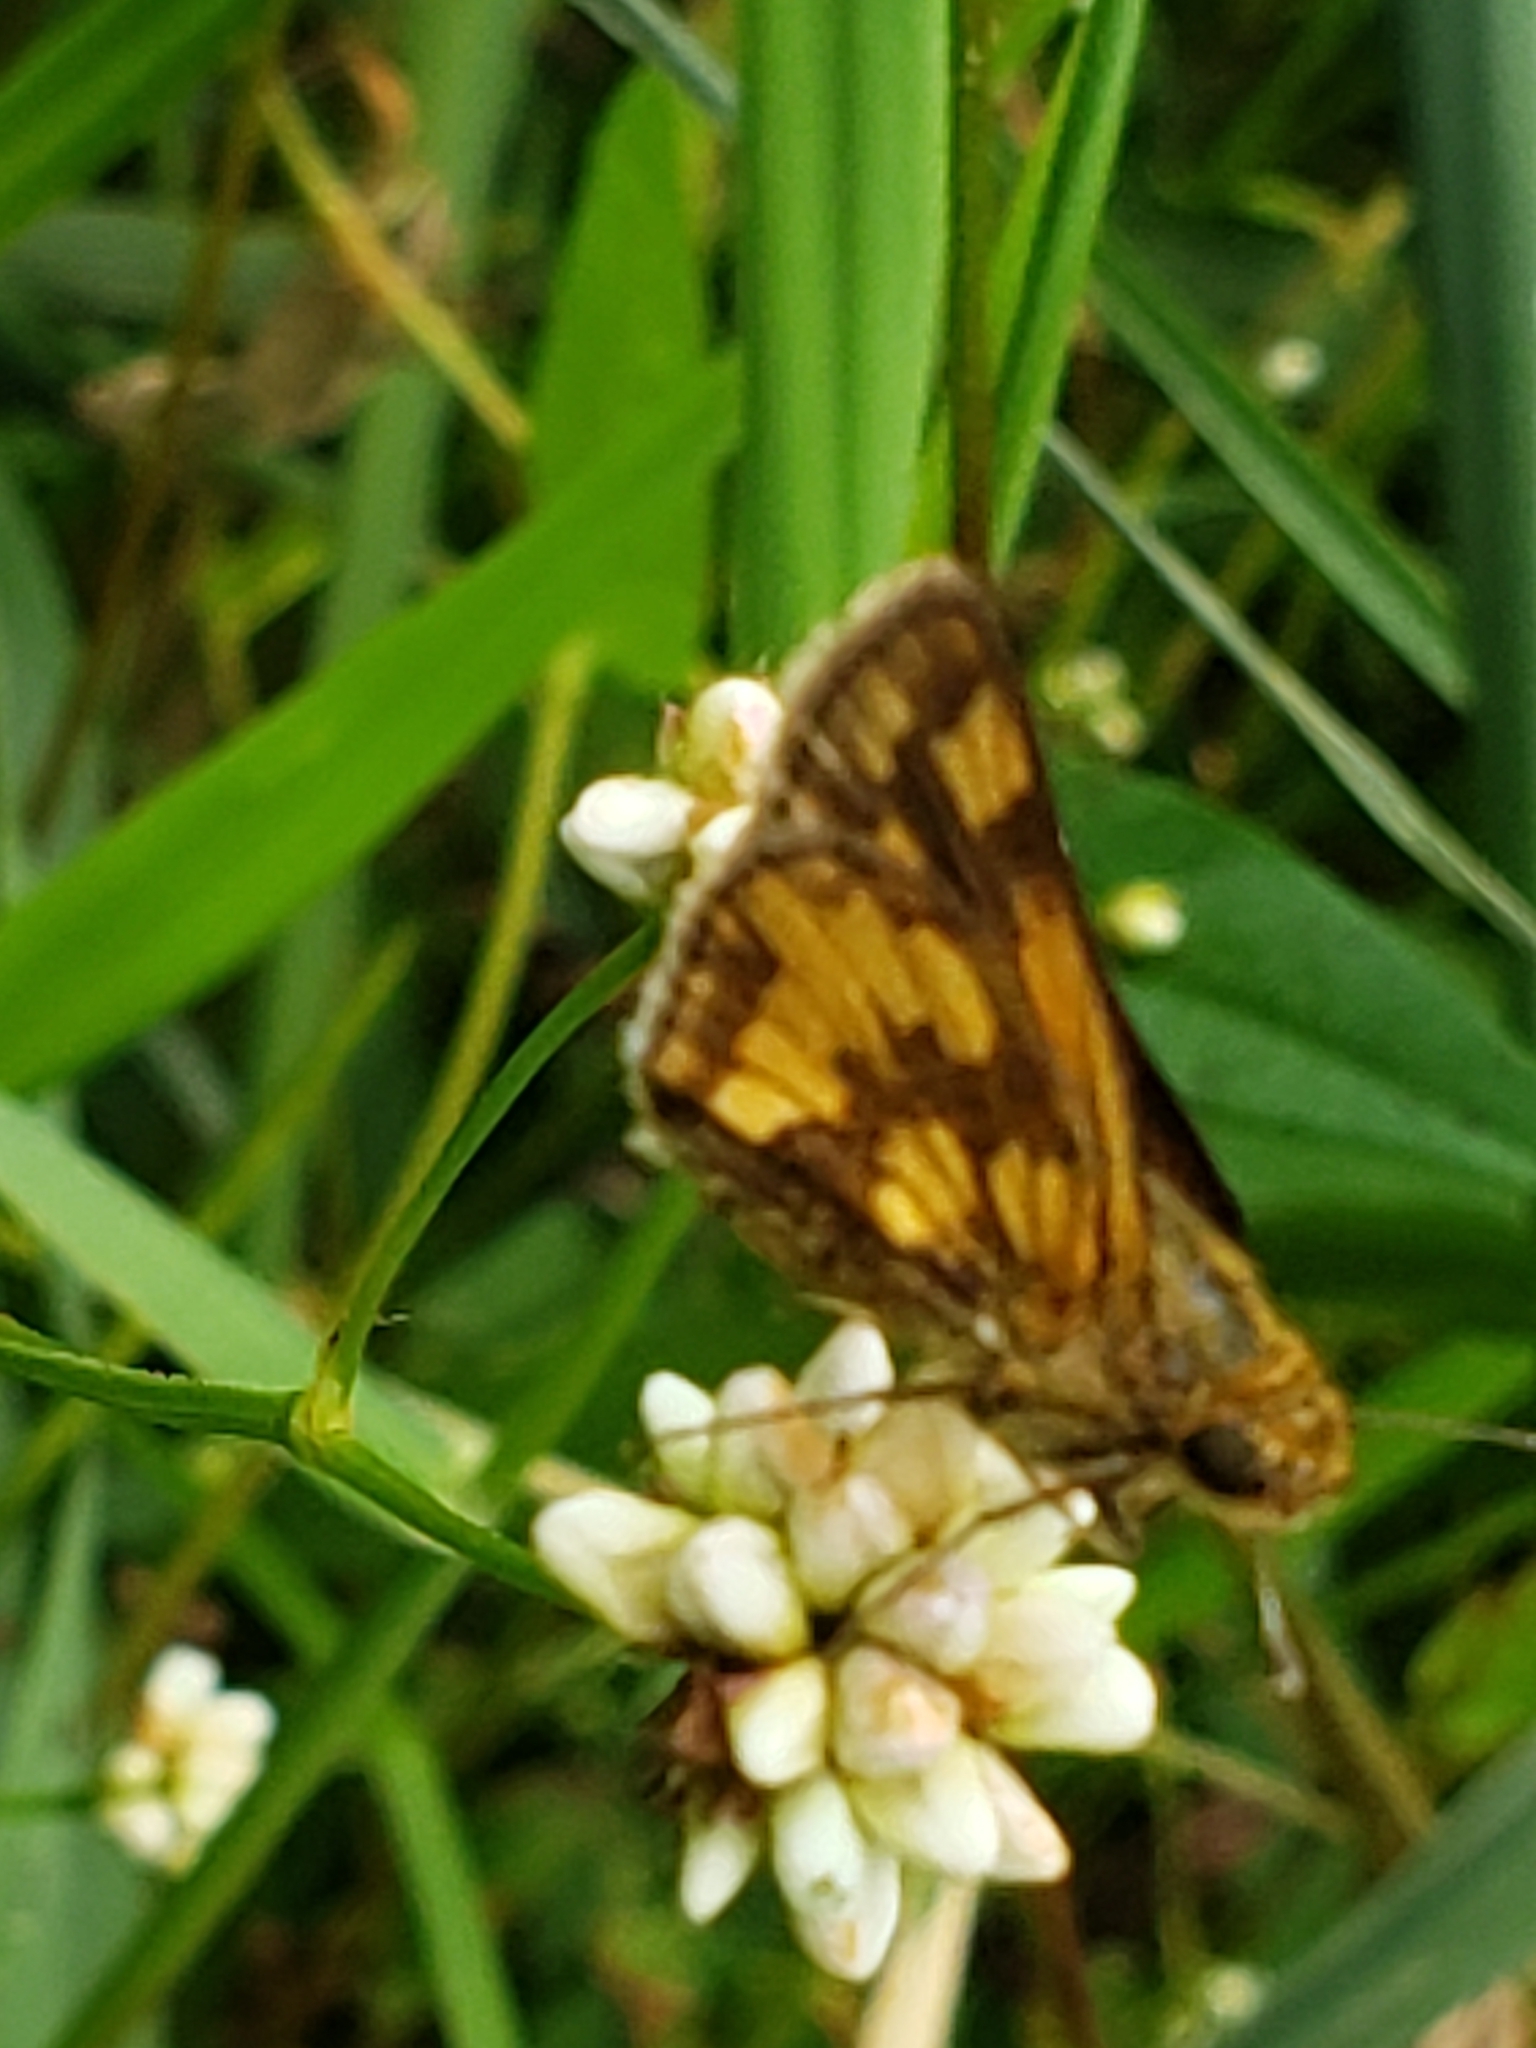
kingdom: Animalia
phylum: Arthropoda
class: Insecta
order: Lepidoptera
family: Hesperiidae
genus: Polites
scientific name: Polites coras
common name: Peck's skipper
